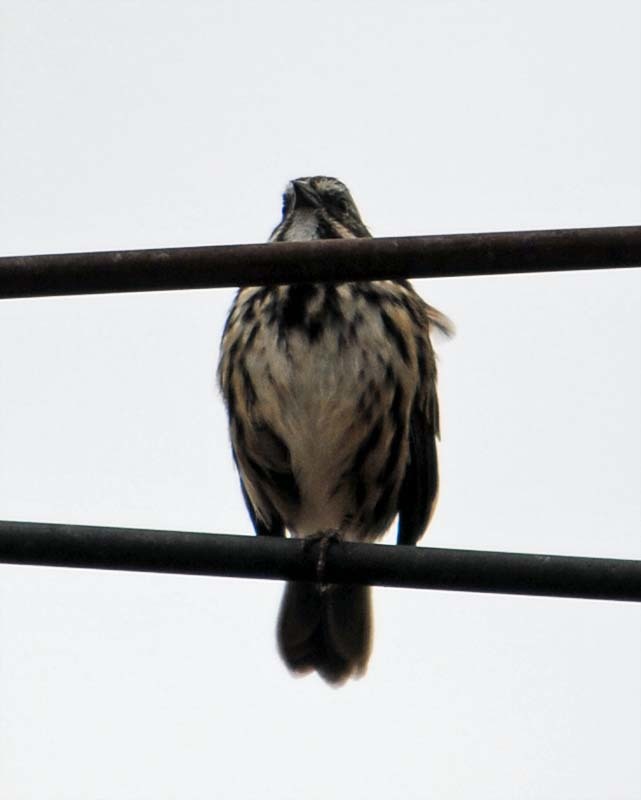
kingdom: Animalia
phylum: Chordata
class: Aves
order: Passeriformes
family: Passerellidae
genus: Melospiza
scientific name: Melospiza melodia
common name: Song sparrow
